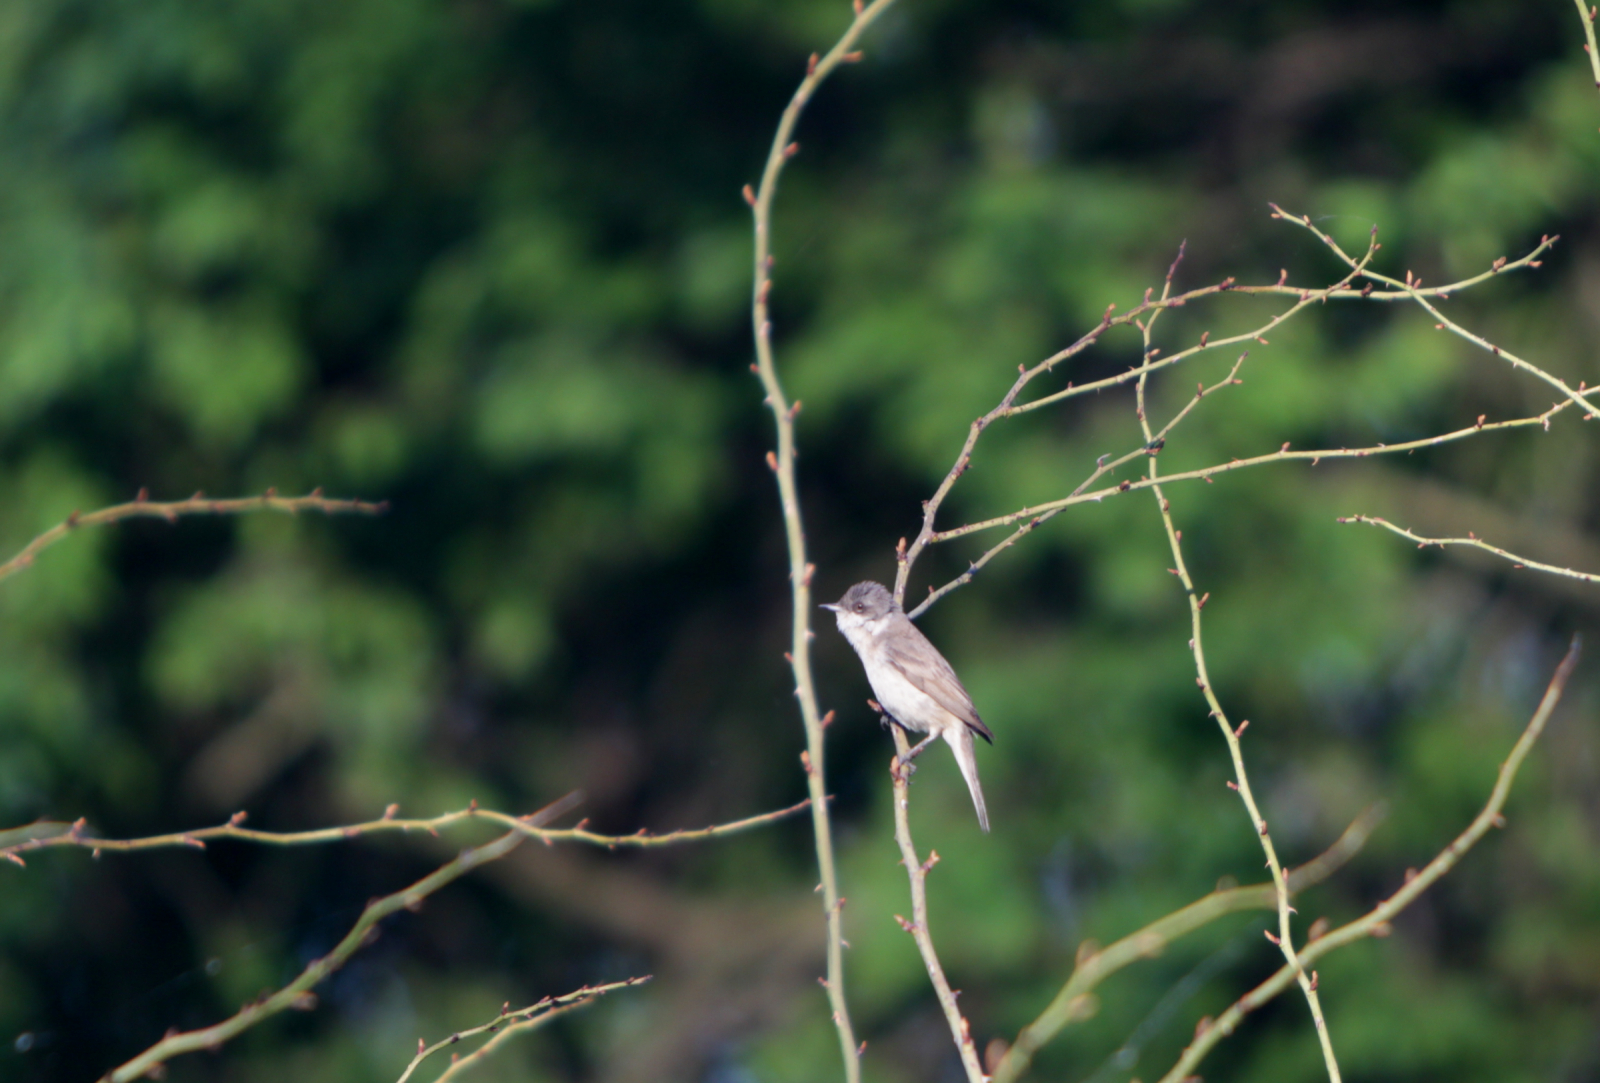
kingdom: Animalia
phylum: Chordata
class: Aves
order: Passeriformes
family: Sylviidae
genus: Sylvia
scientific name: Sylvia curruca
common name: Lesser whitethroat
